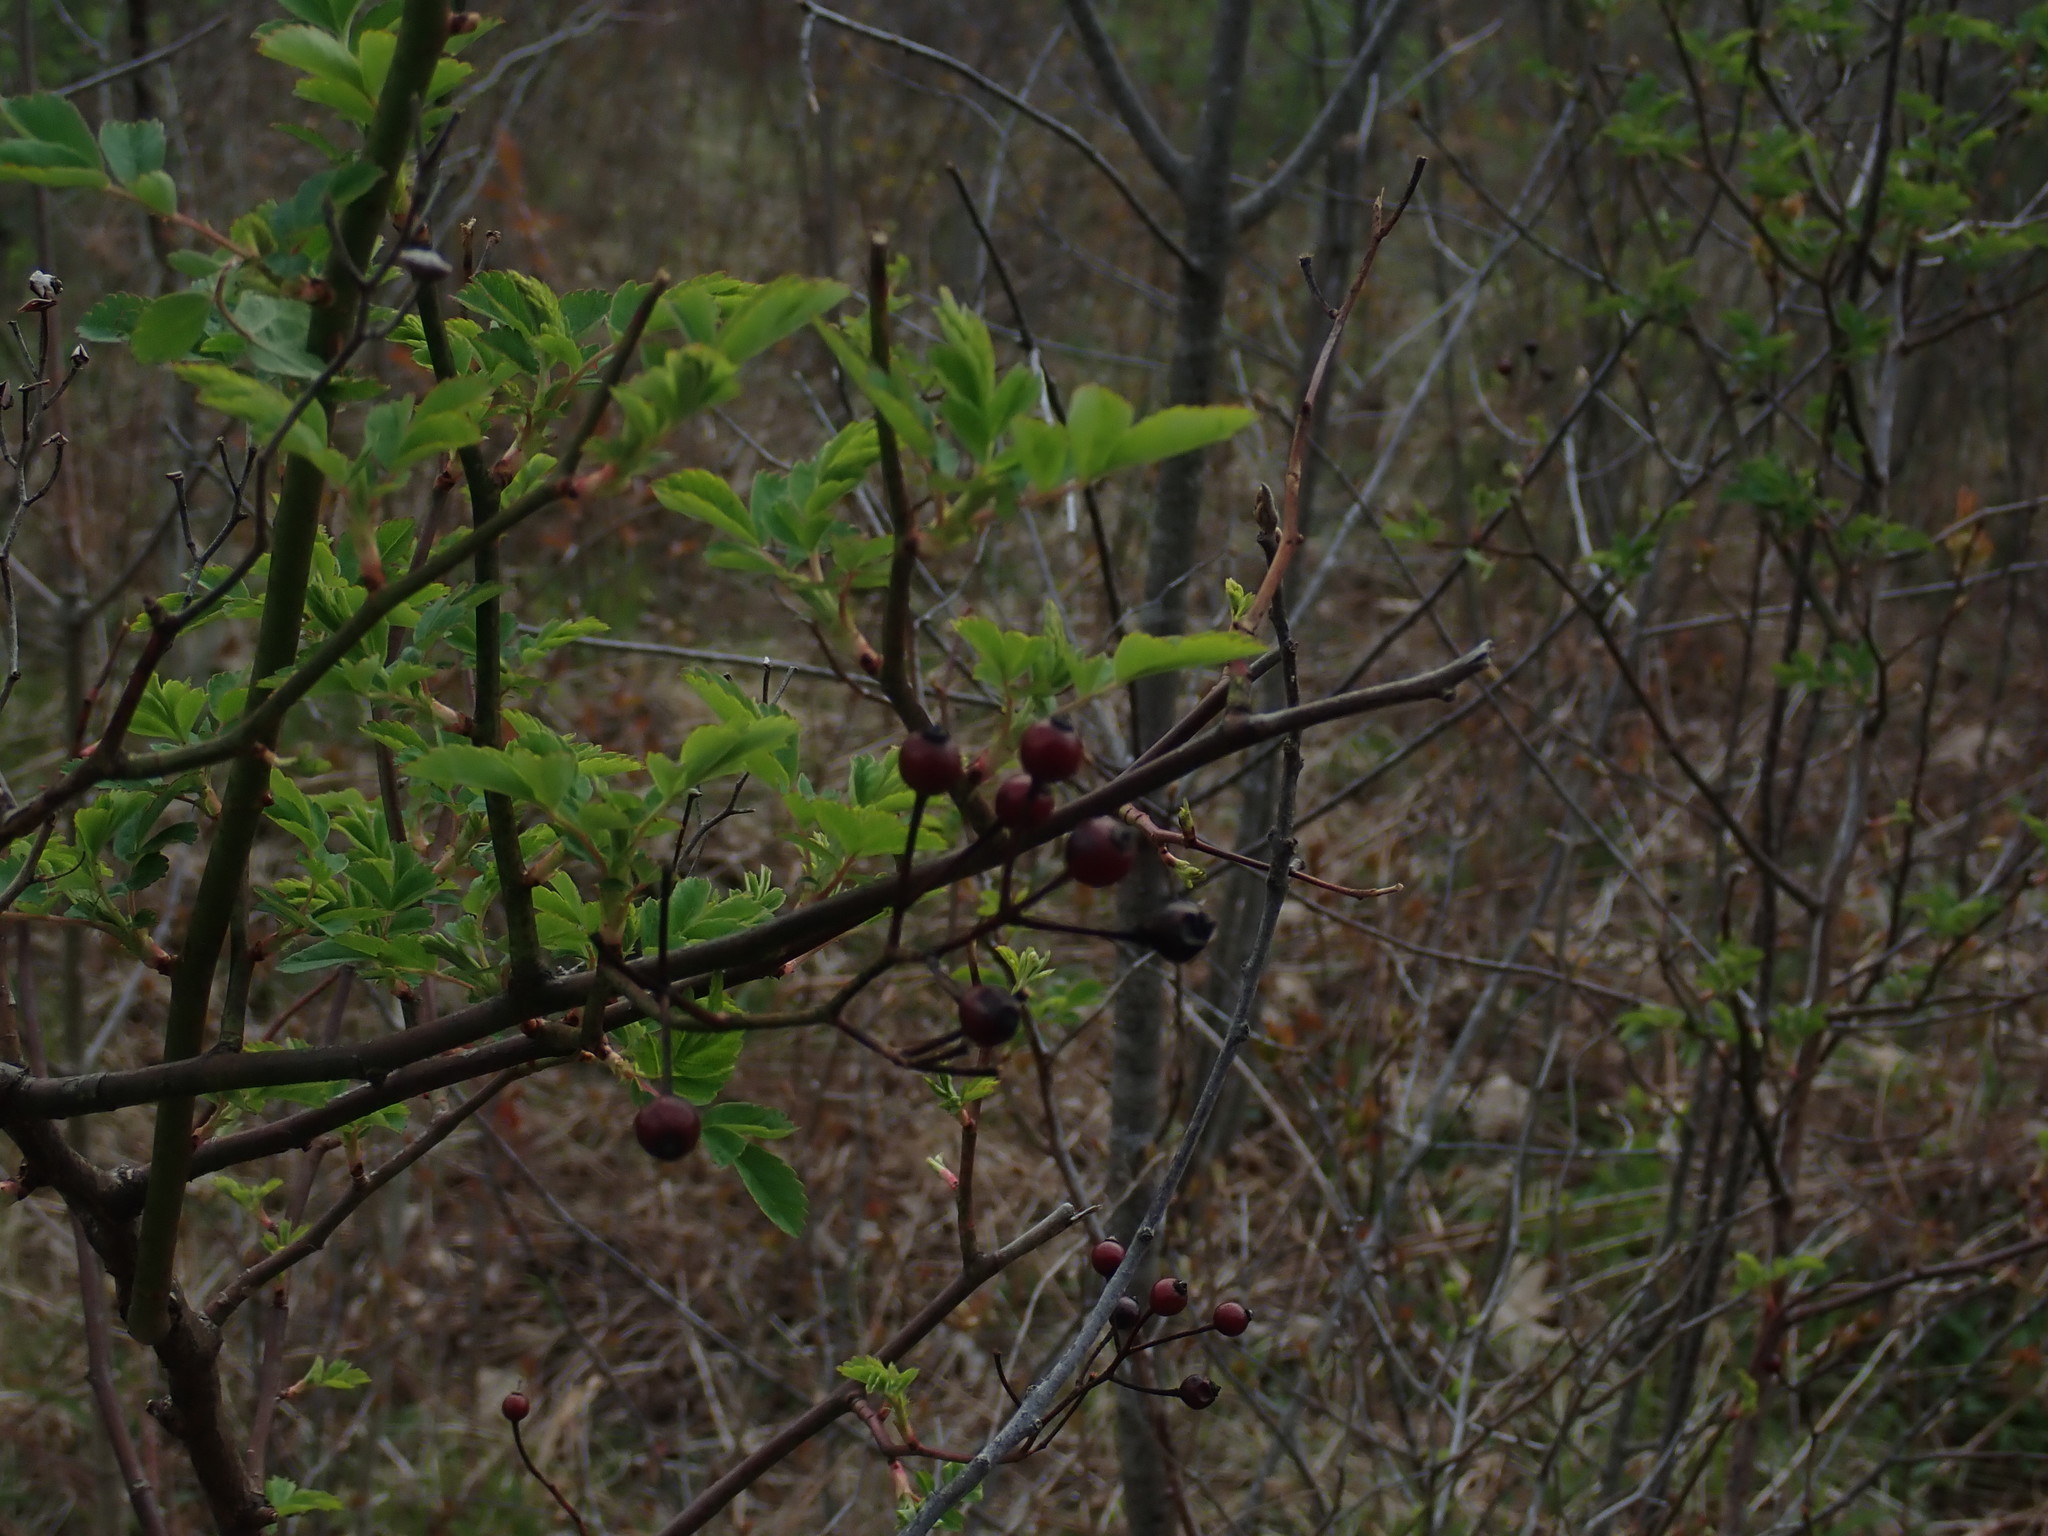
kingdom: Plantae
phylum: Tracheophyta
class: Magnoliopsida
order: Rosales
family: Rosaceae
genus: Rosa
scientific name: Rosa multiflora
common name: Multiflora rose
